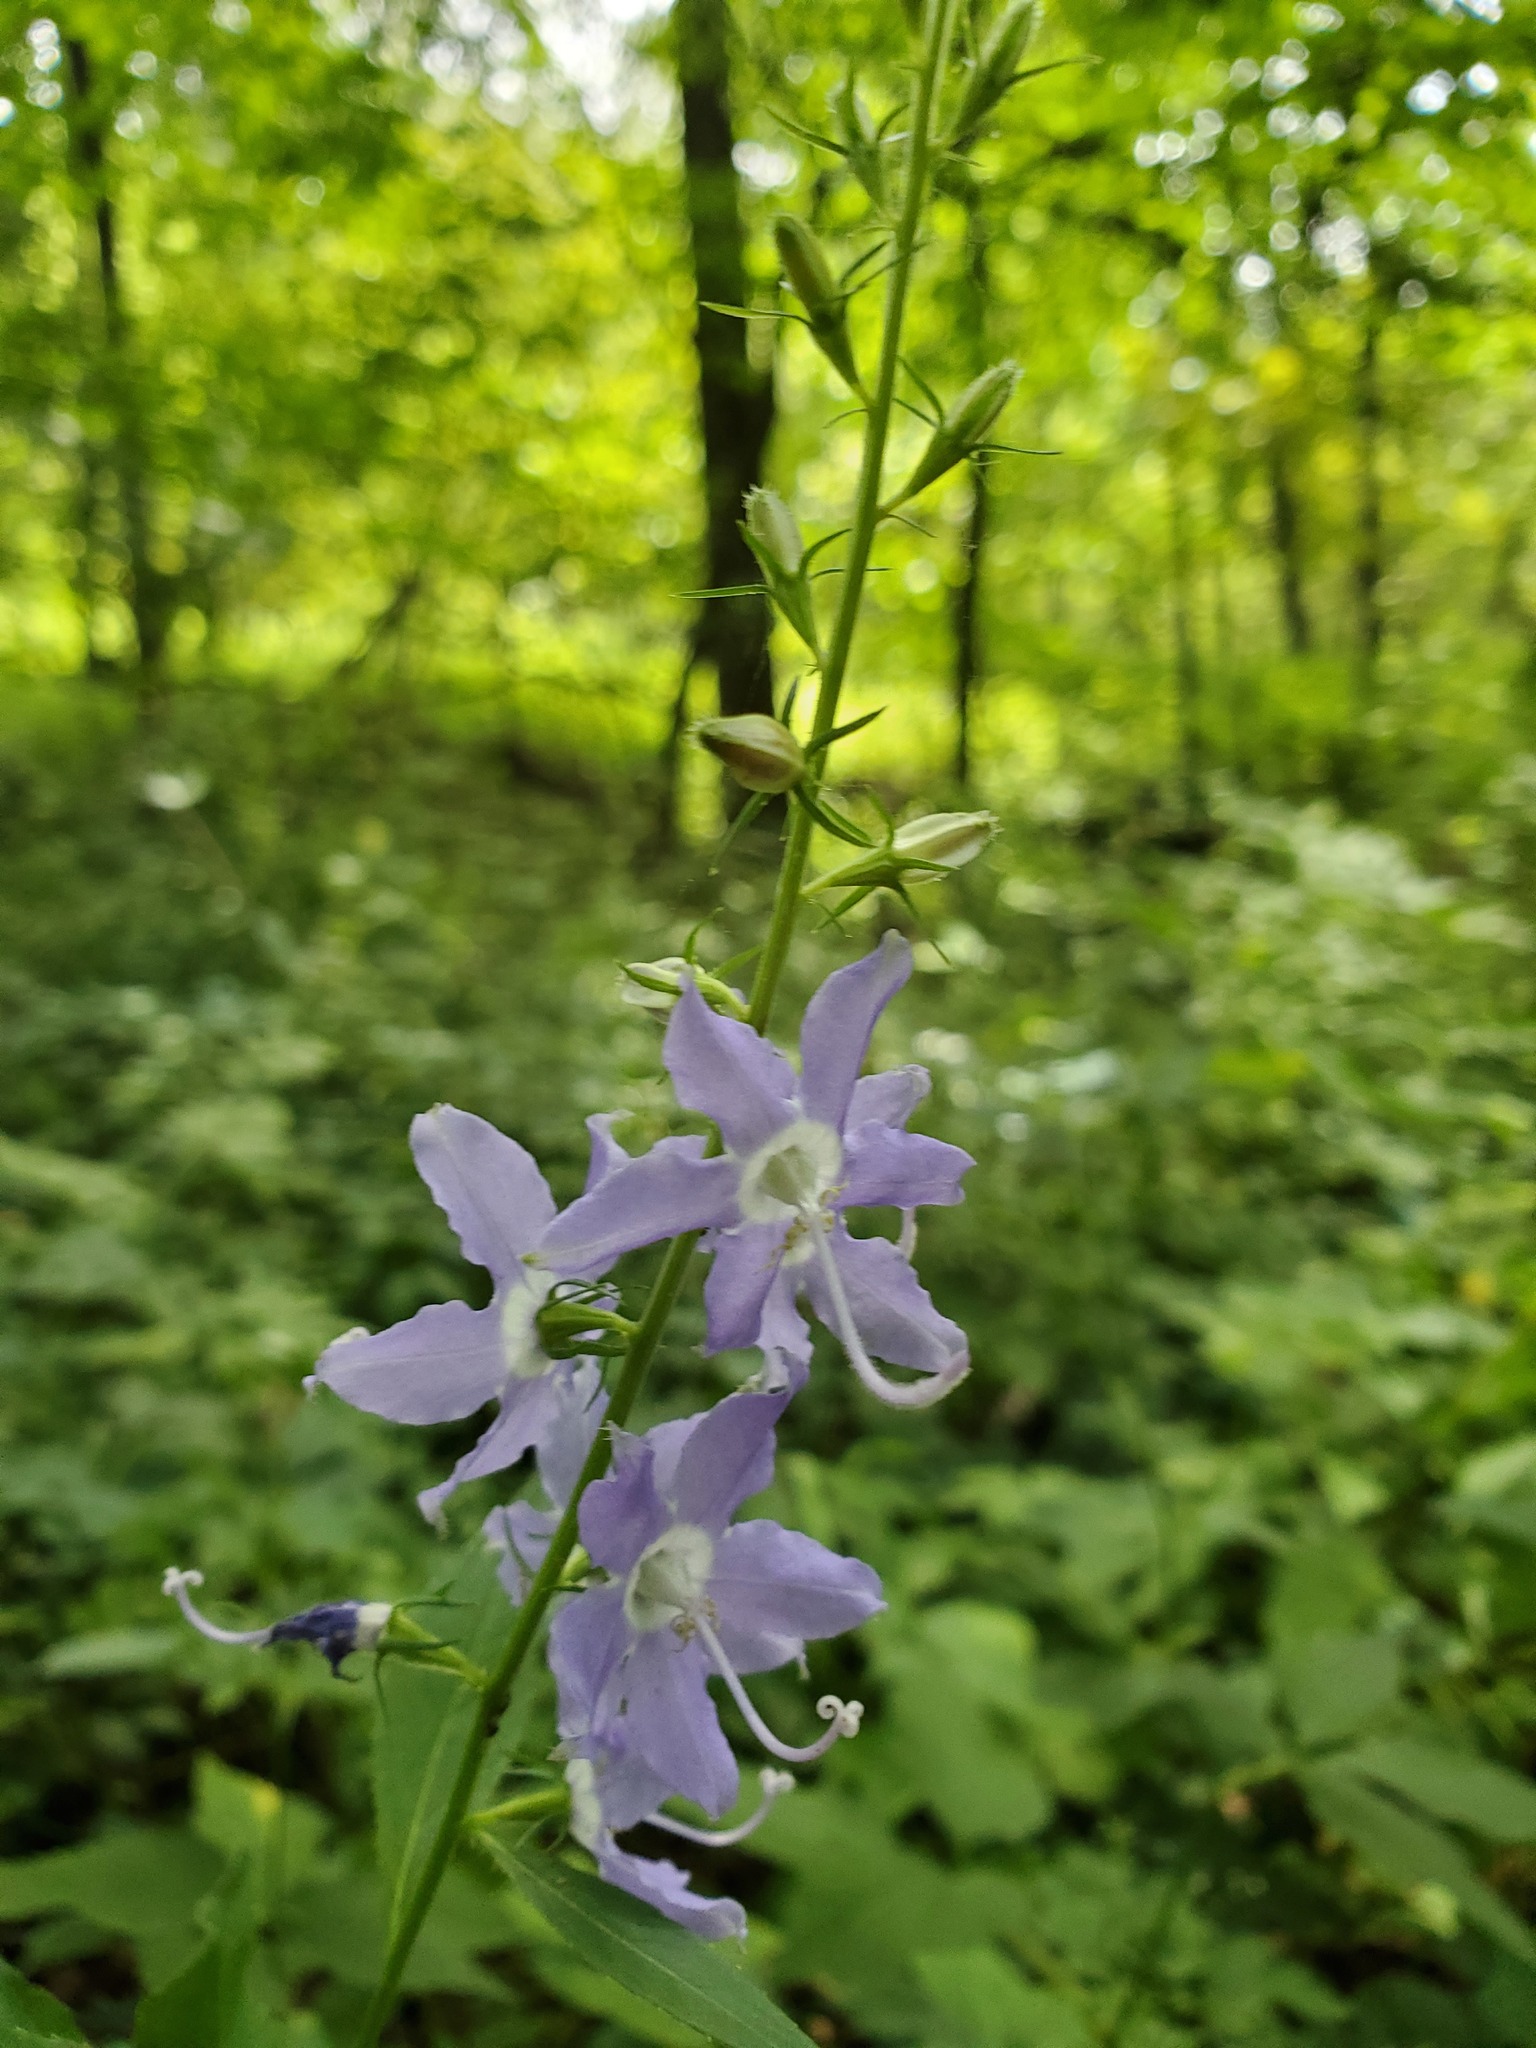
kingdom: Plantae
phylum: Tracheophyta
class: Magnoliopsida
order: Asterales
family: Campanulaceae
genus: Campanulastrum
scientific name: Campanulastrum americanum
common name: American bellflower
